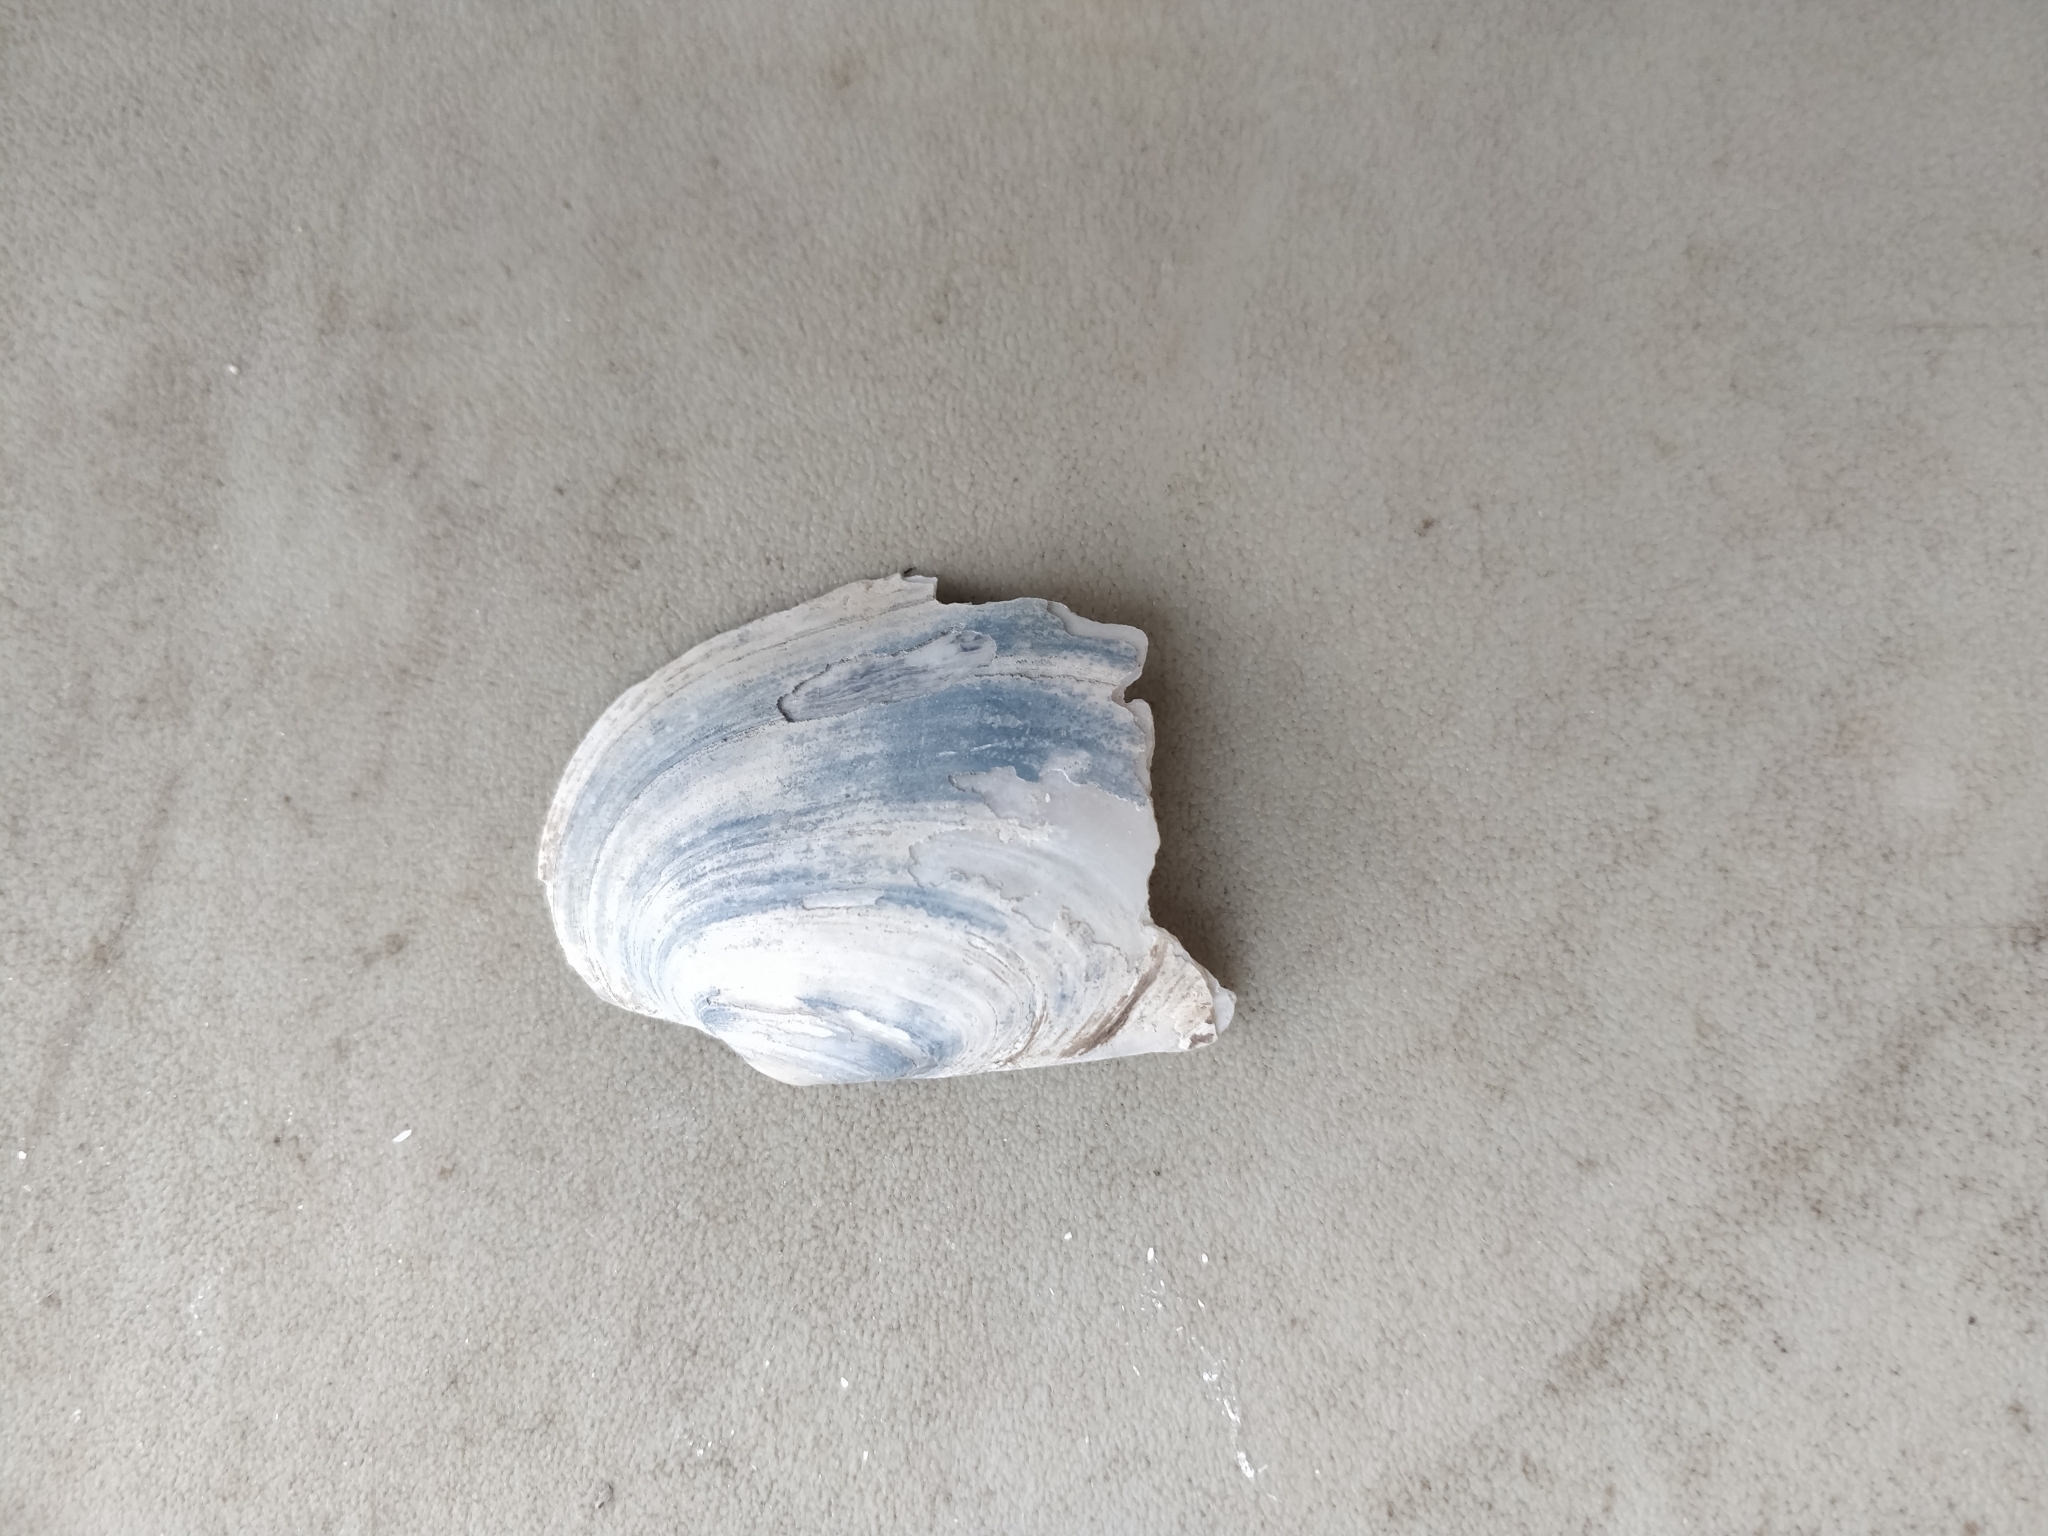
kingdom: Animalia
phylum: Mollusca
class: Bivalvia
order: Unionida
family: Unionidae
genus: Lampsilis
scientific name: Lampsilis siliquoidea
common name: Fatmucket
